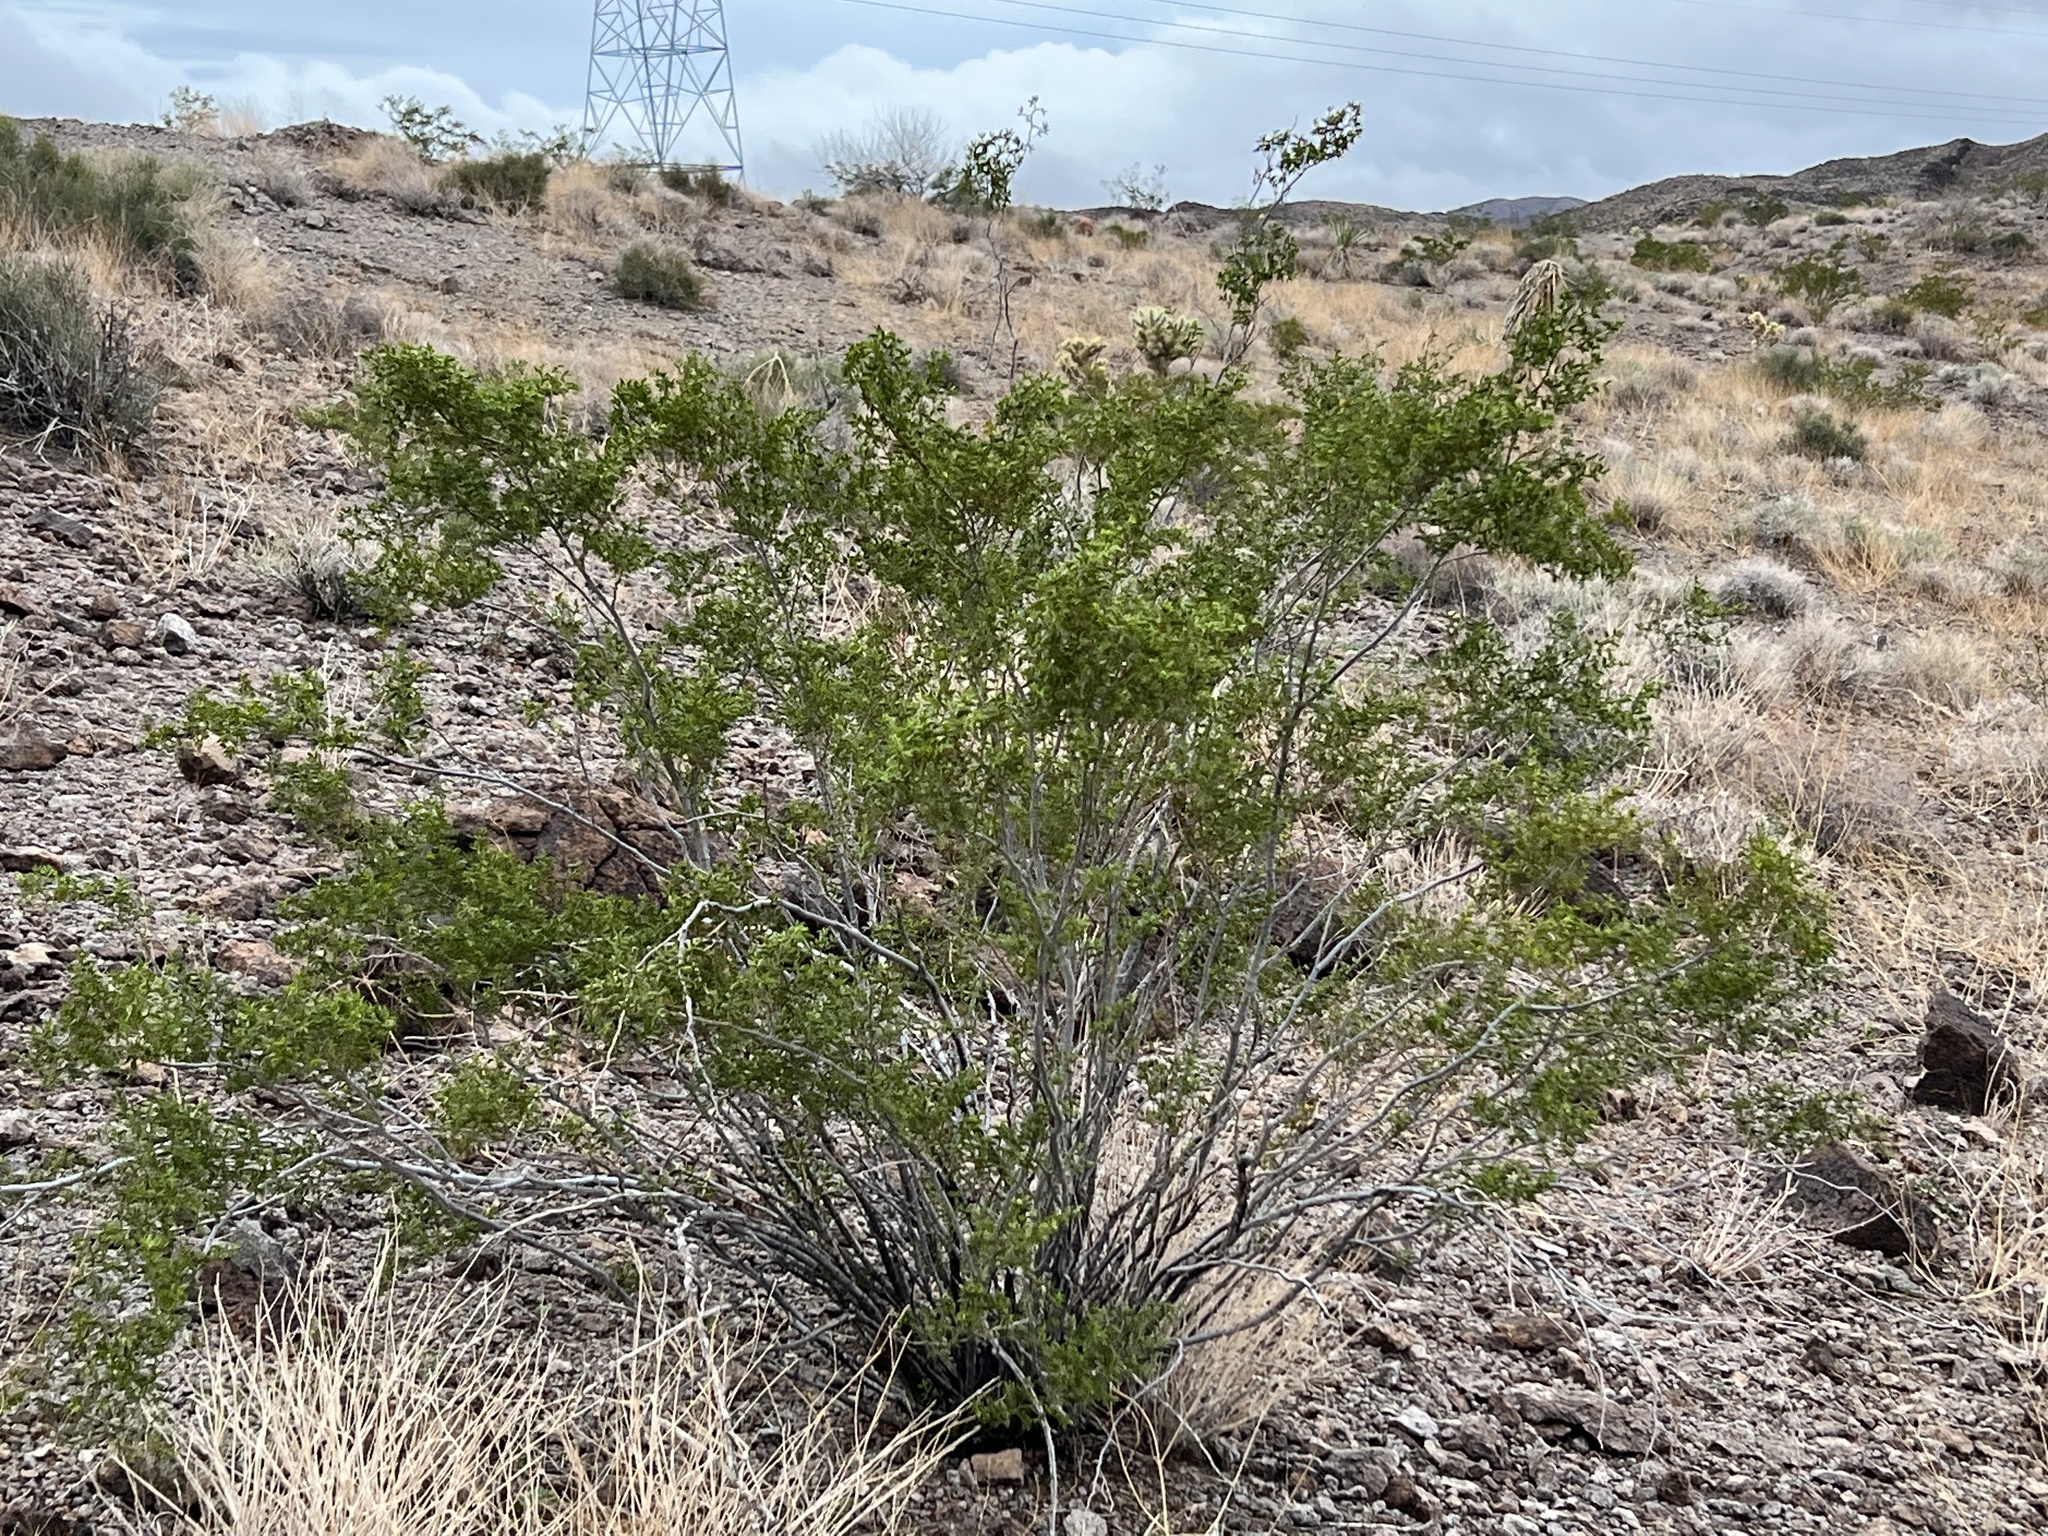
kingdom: Plantae
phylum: Tracheophyta
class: Magnoliopsida
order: Zygophyllales
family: Zygophyllaceae
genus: Larrea
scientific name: Larrea tridentata
